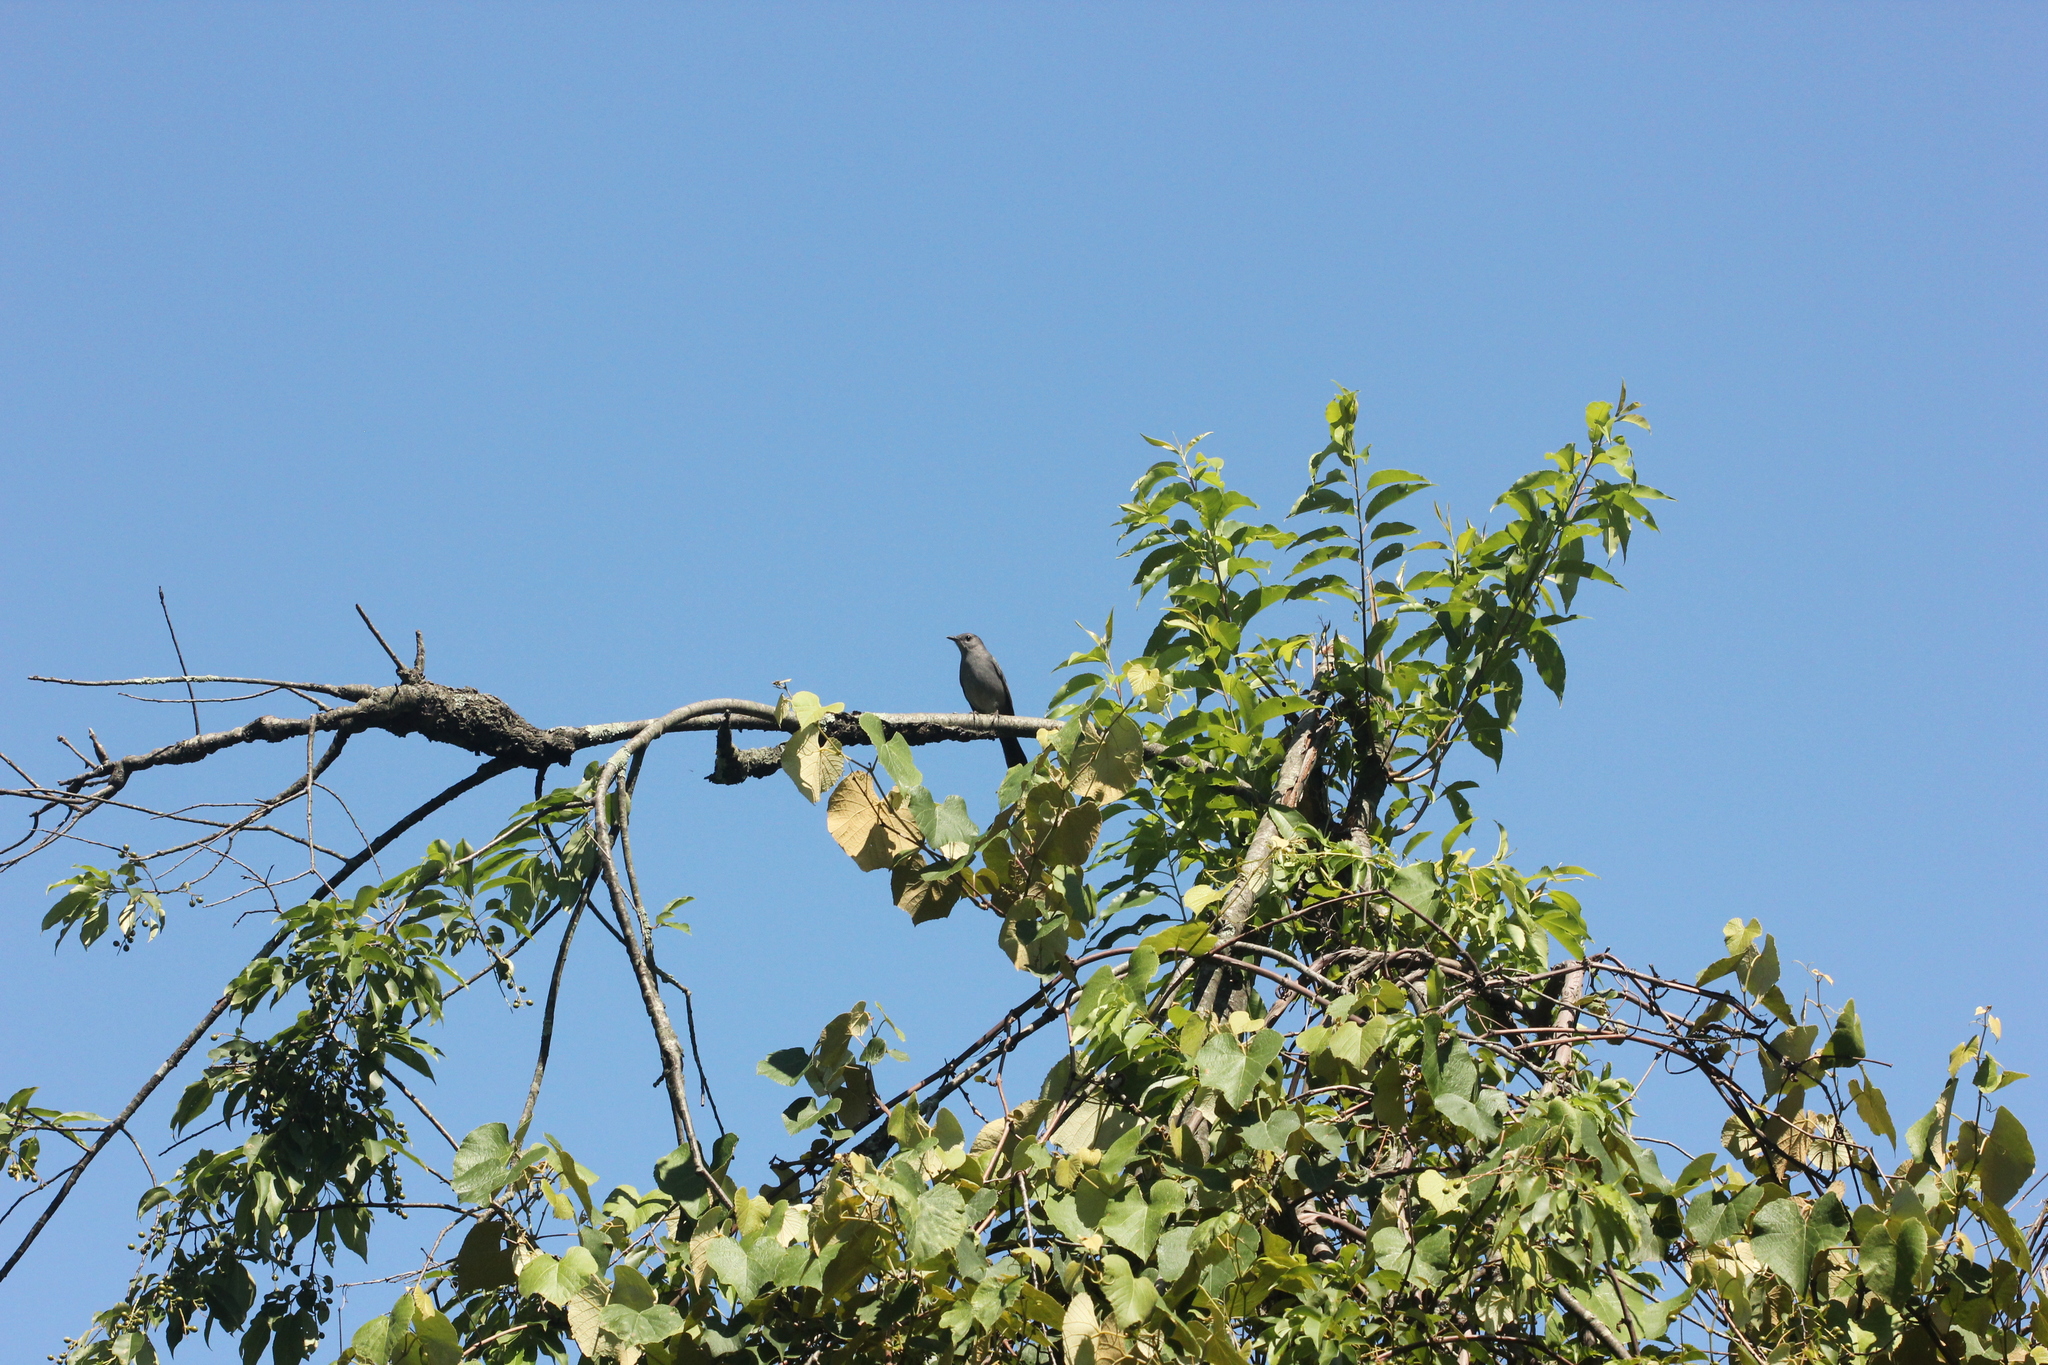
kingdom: Animalia
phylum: Chordata
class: Aves
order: Passeriformes
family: Mimidae
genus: Dumetella
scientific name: Dumetella carolinensis
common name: Gray catbird
